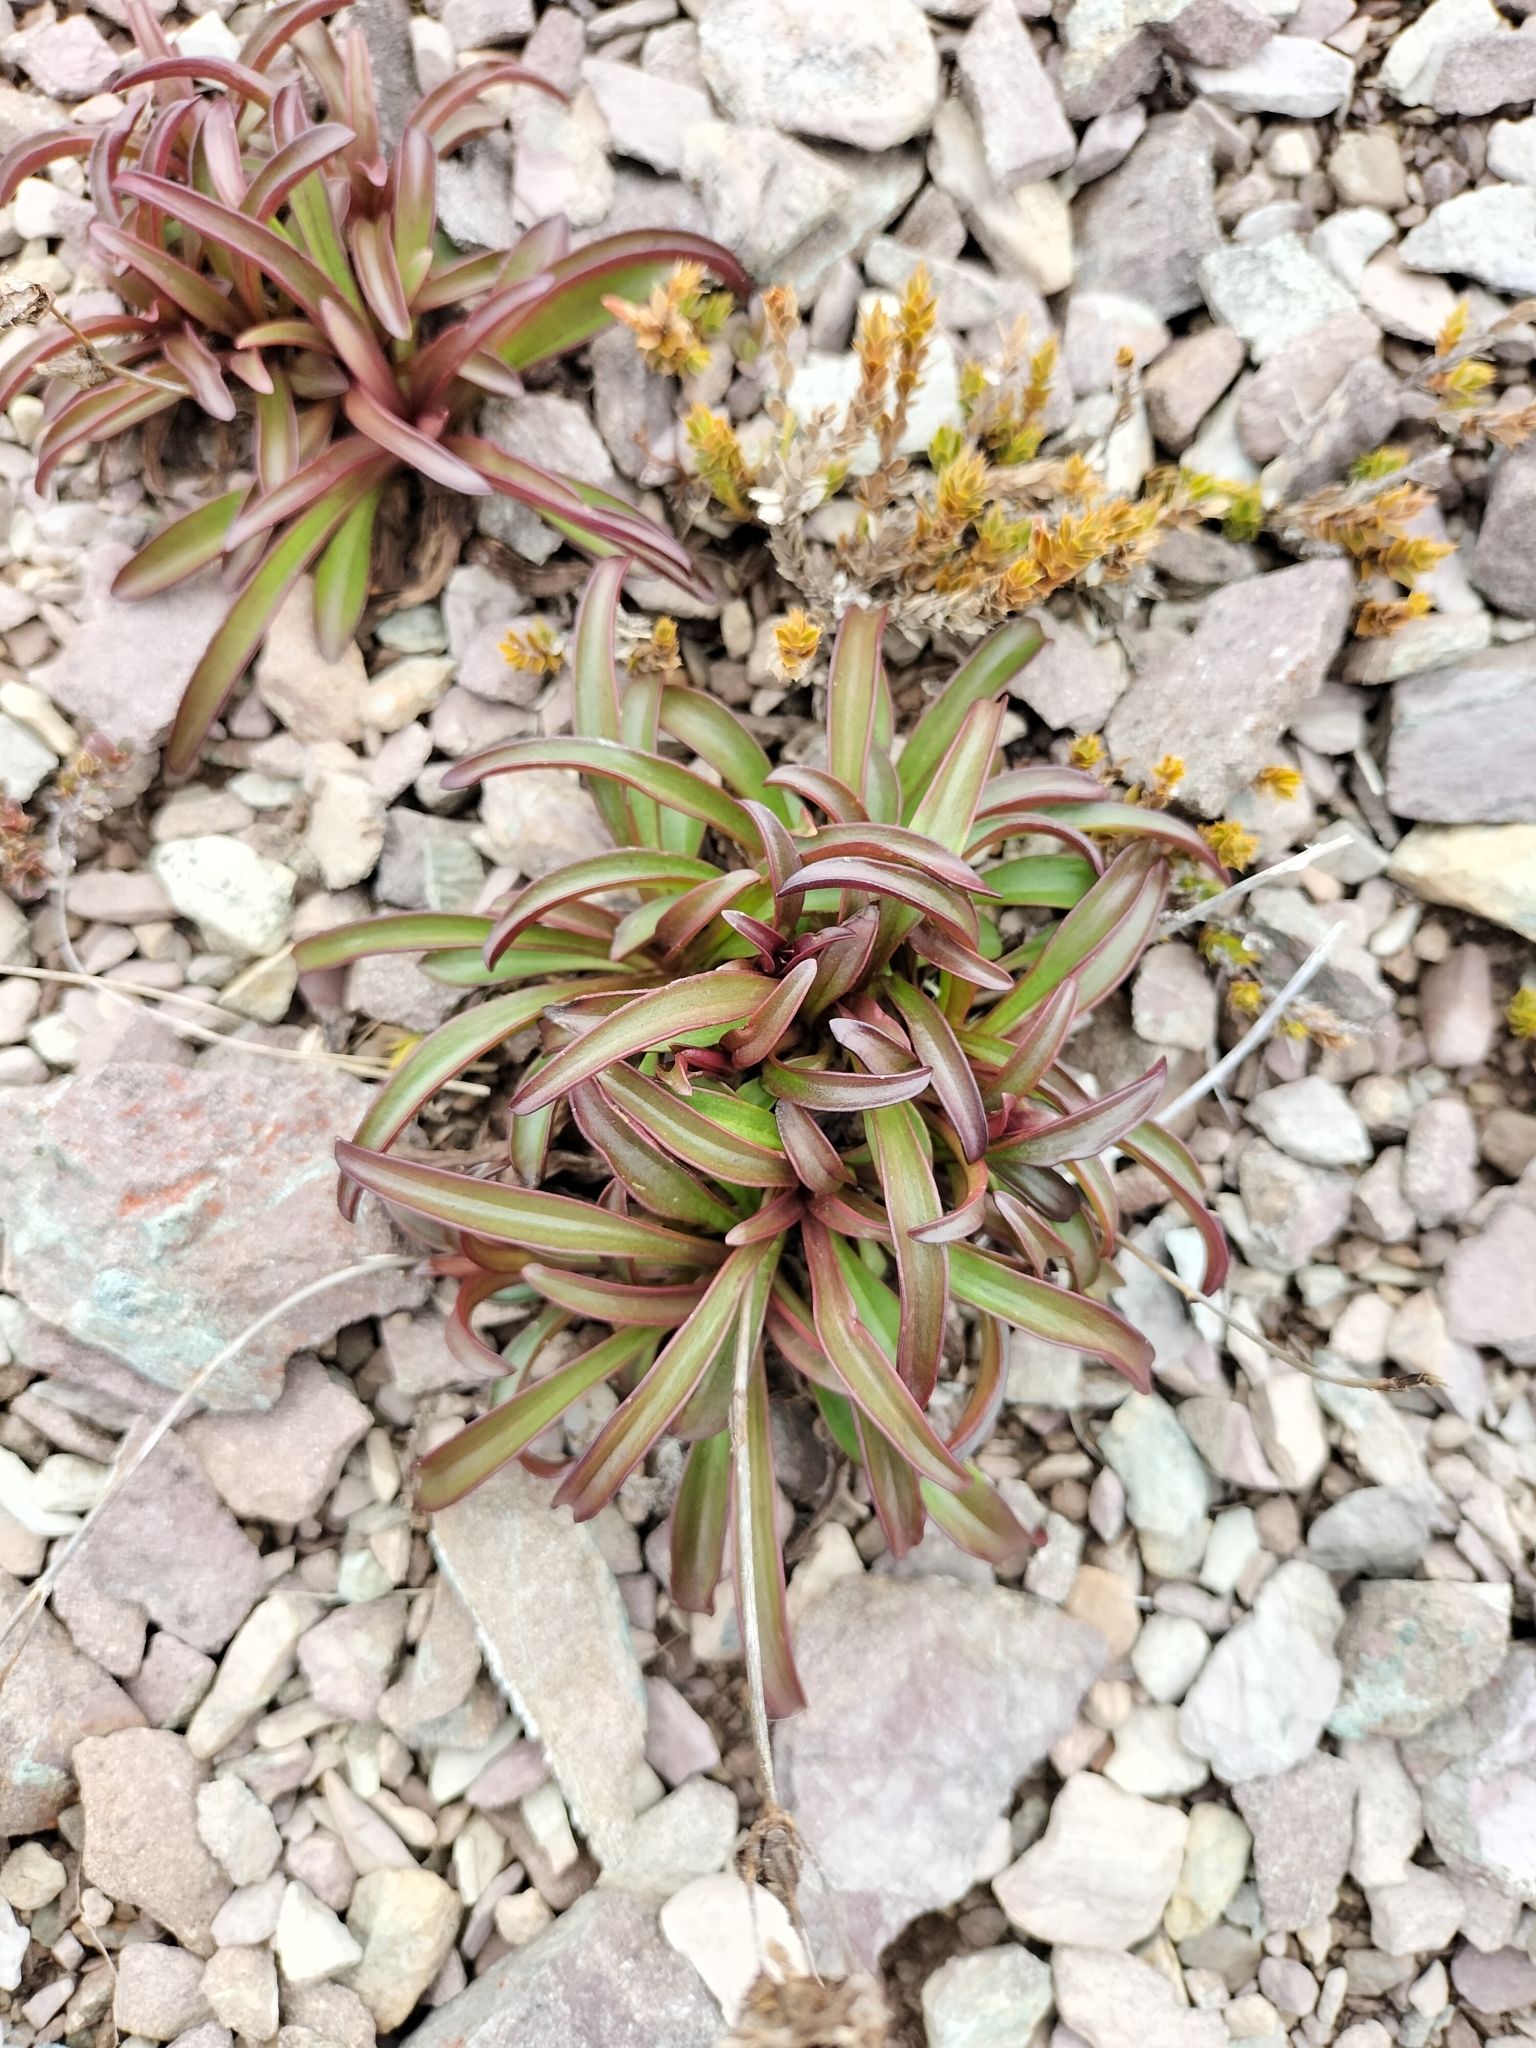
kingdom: Plantae
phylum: Tracheophyta
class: Magnoliopsida
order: Gentianales
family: Gentianaceae
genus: Gentianella
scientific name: Gentianella angustifolia
